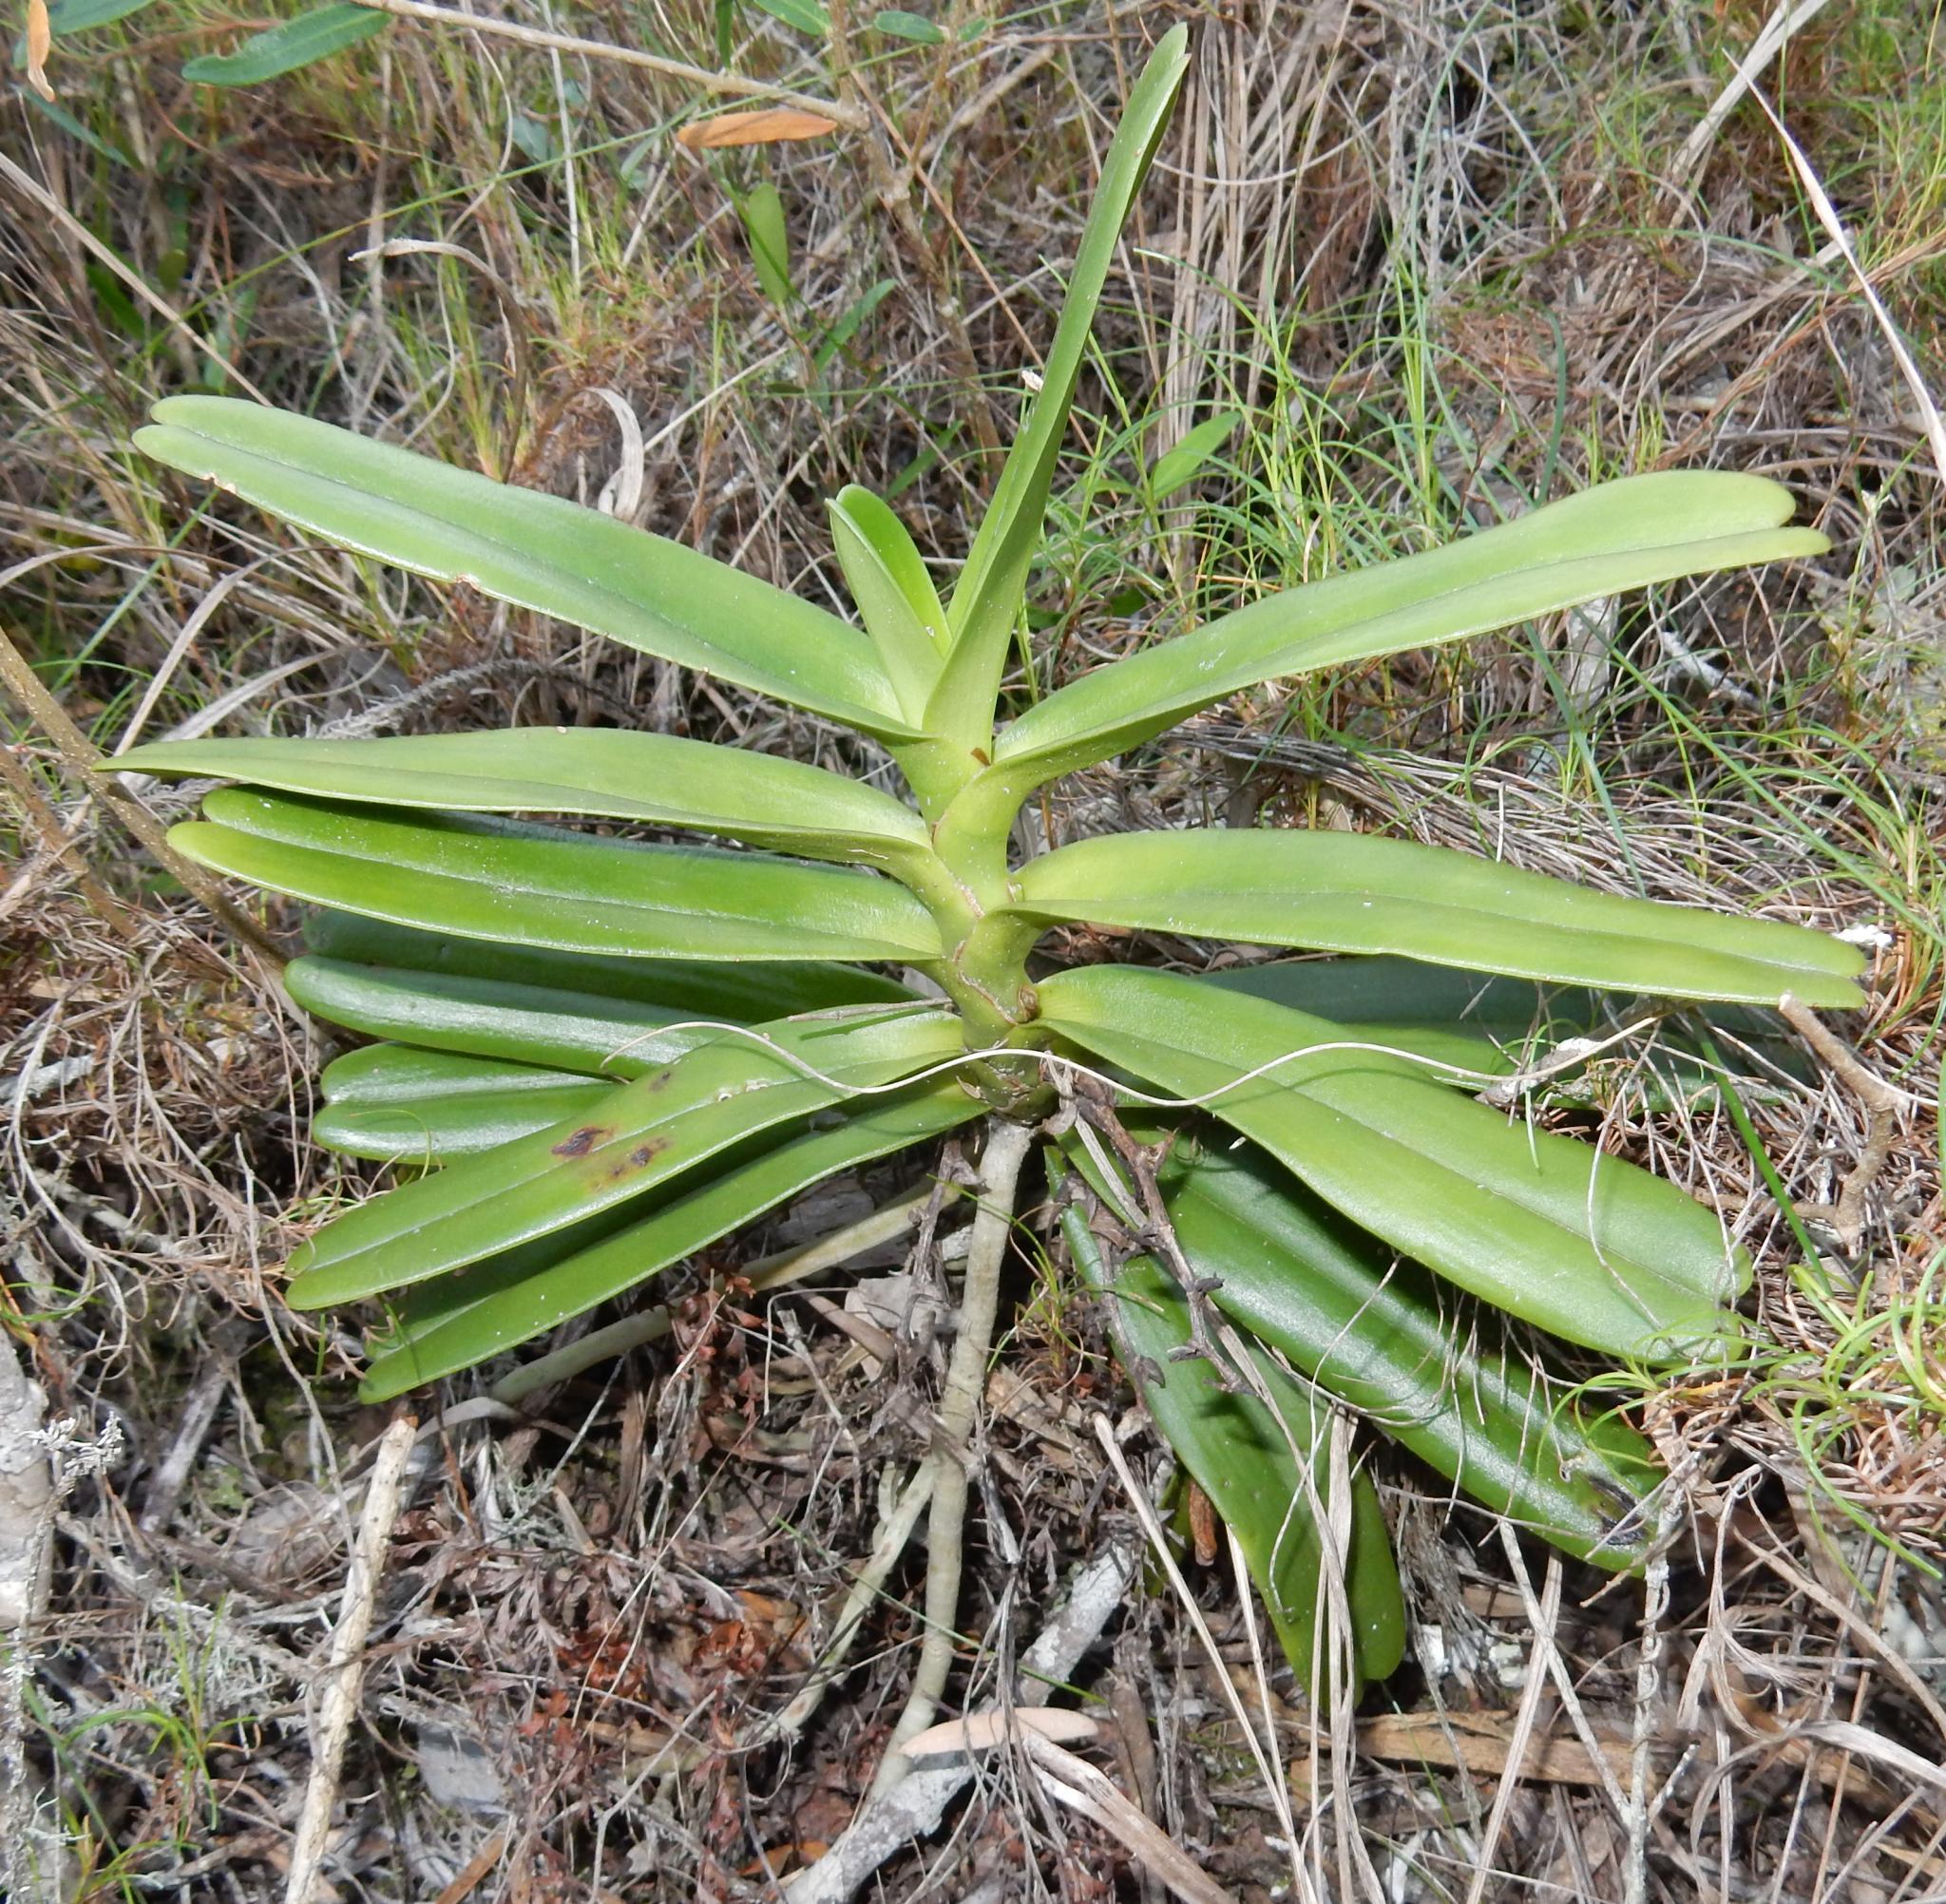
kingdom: Plantae
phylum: Tracheophyta
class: Liliopsida
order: Asparagales
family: Orchidaceae
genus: Cyrtorchis
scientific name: Cyrtorchis arcuata
